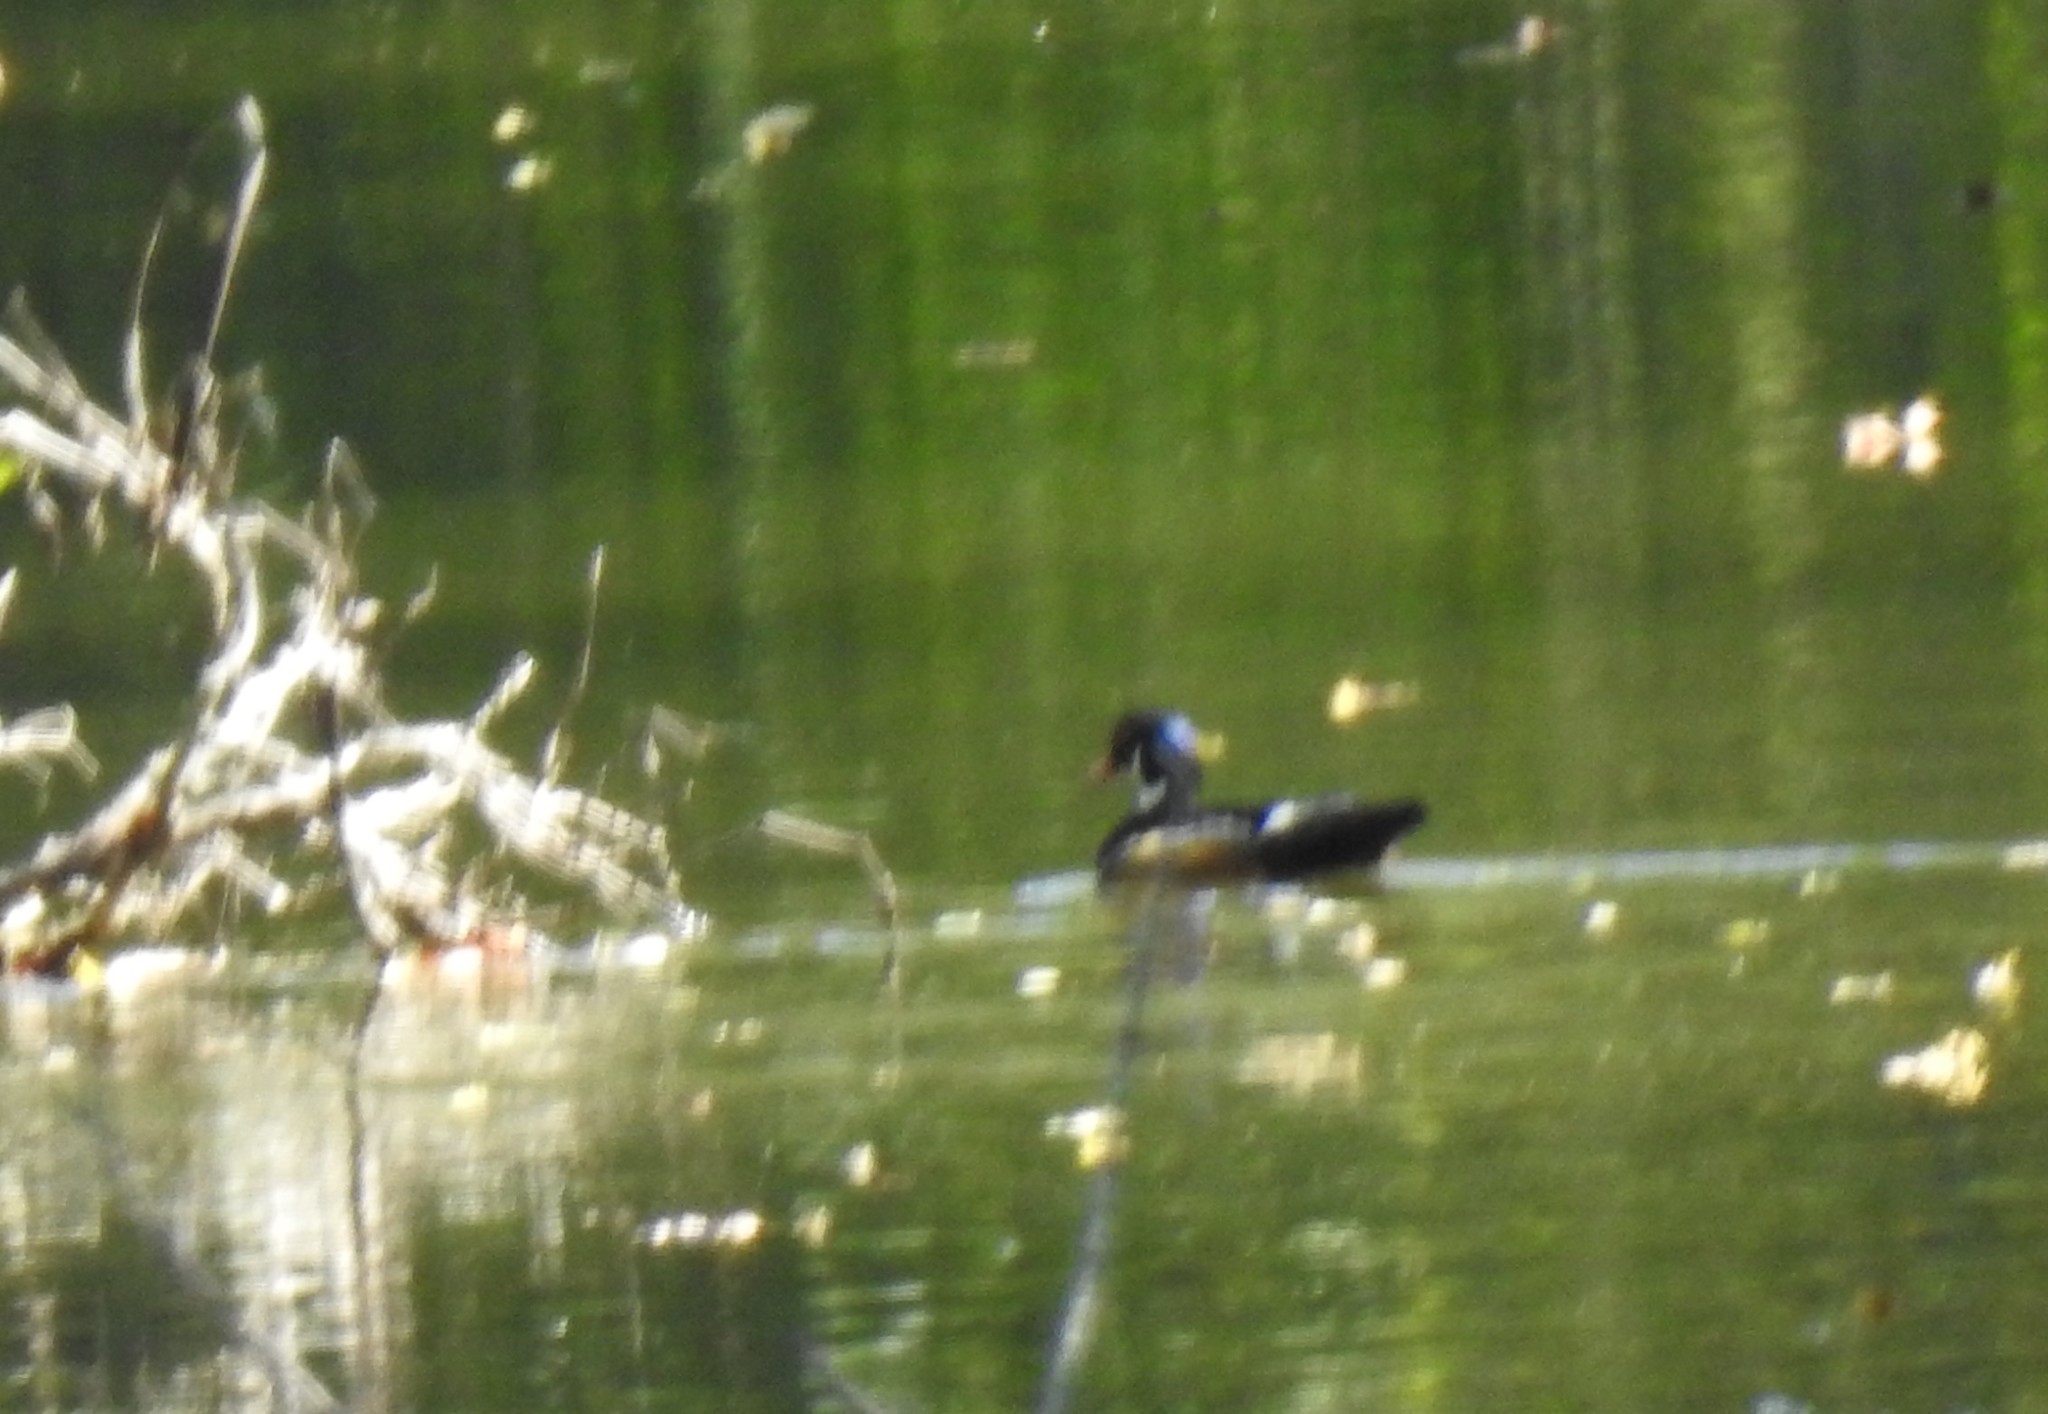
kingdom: Animalia
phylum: Chordata
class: Aves
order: Anseriformes
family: Anatidae
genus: Aix
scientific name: Aix sponsa
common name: Wood duck
